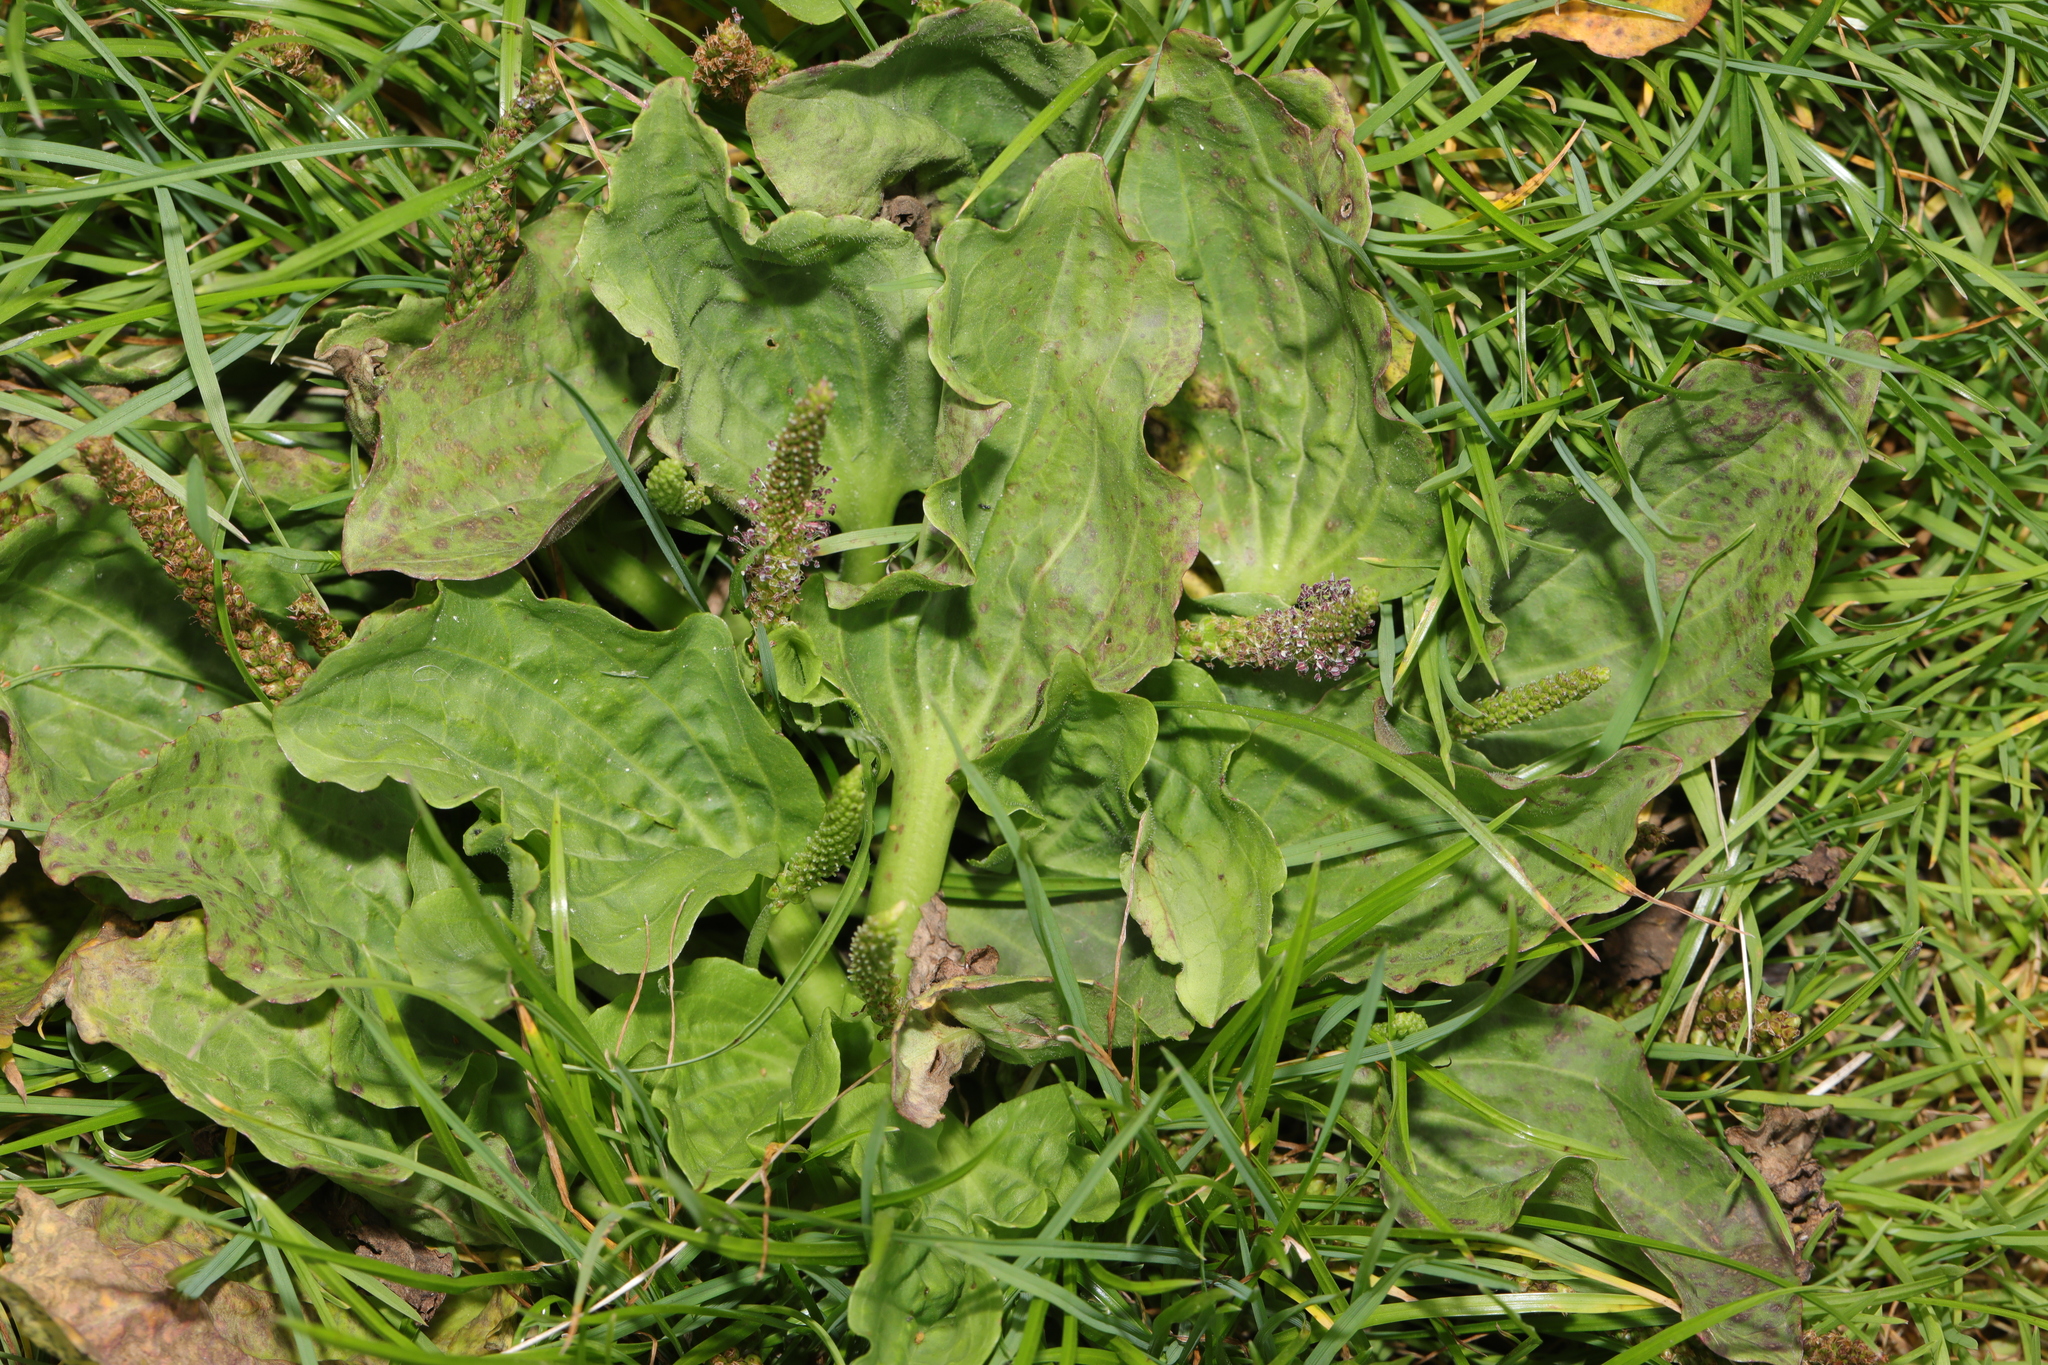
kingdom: Plantae
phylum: Tracheophyta
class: Magnoliopsida
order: Lamiales
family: Plantaginaceae
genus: Plantago
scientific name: Plantago major
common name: Common plantain
